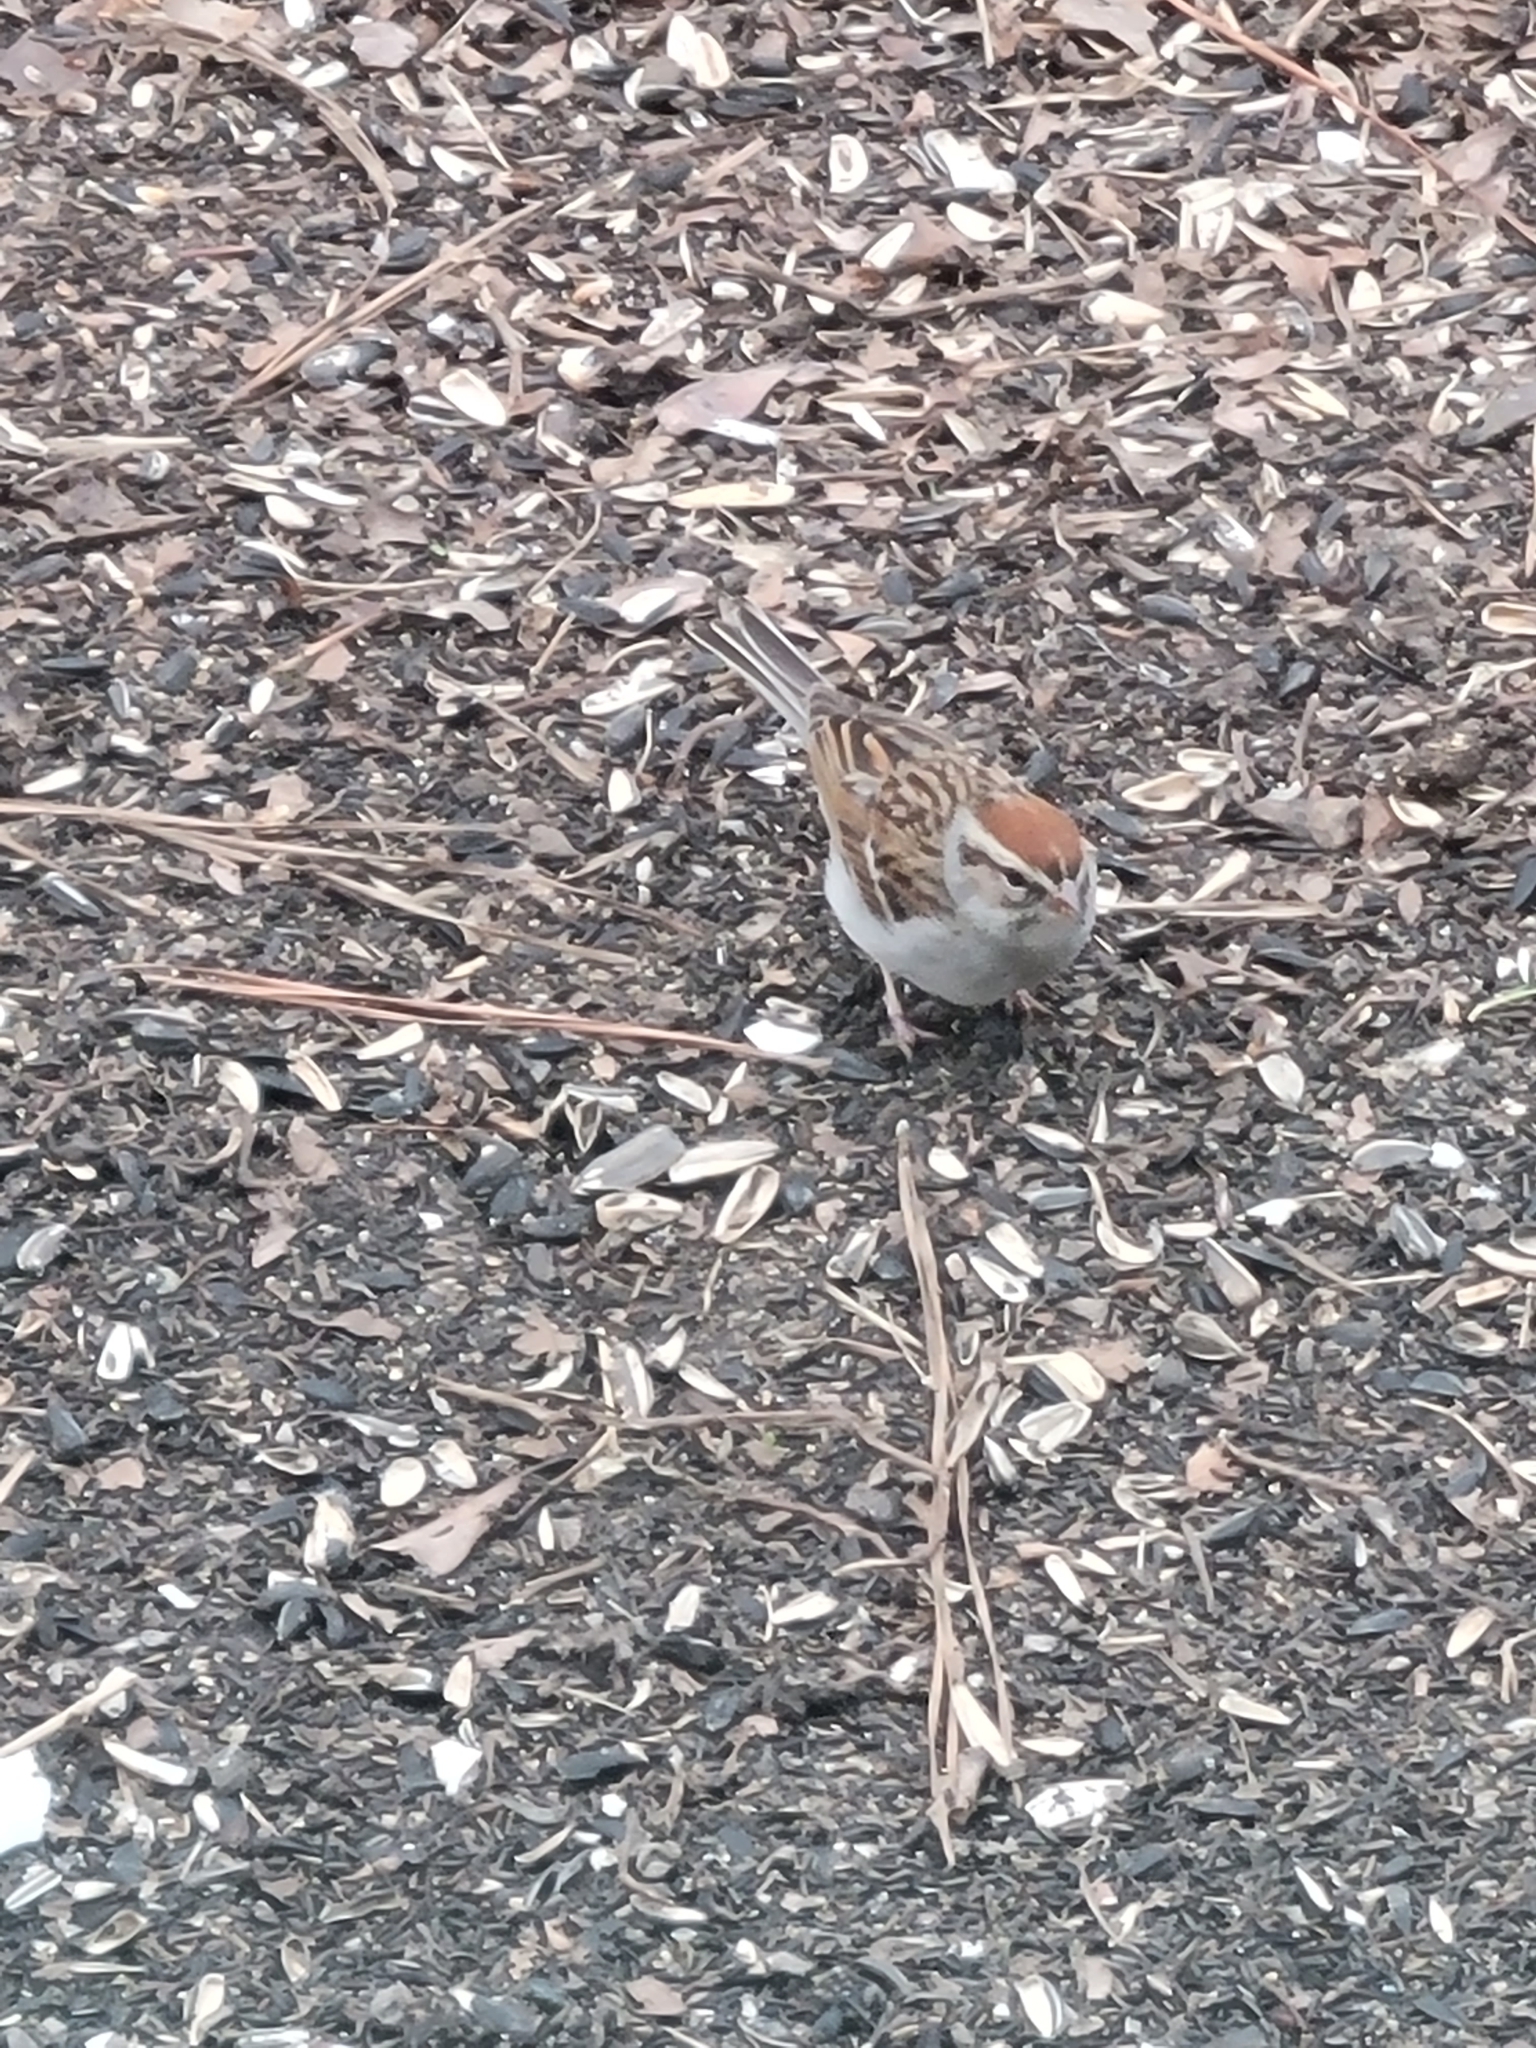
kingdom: Animalia
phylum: Chordata
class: Aves
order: Passeriformes
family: Passerellidae
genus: Spizella
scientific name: Spizella passerina
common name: Chipping sparrow
